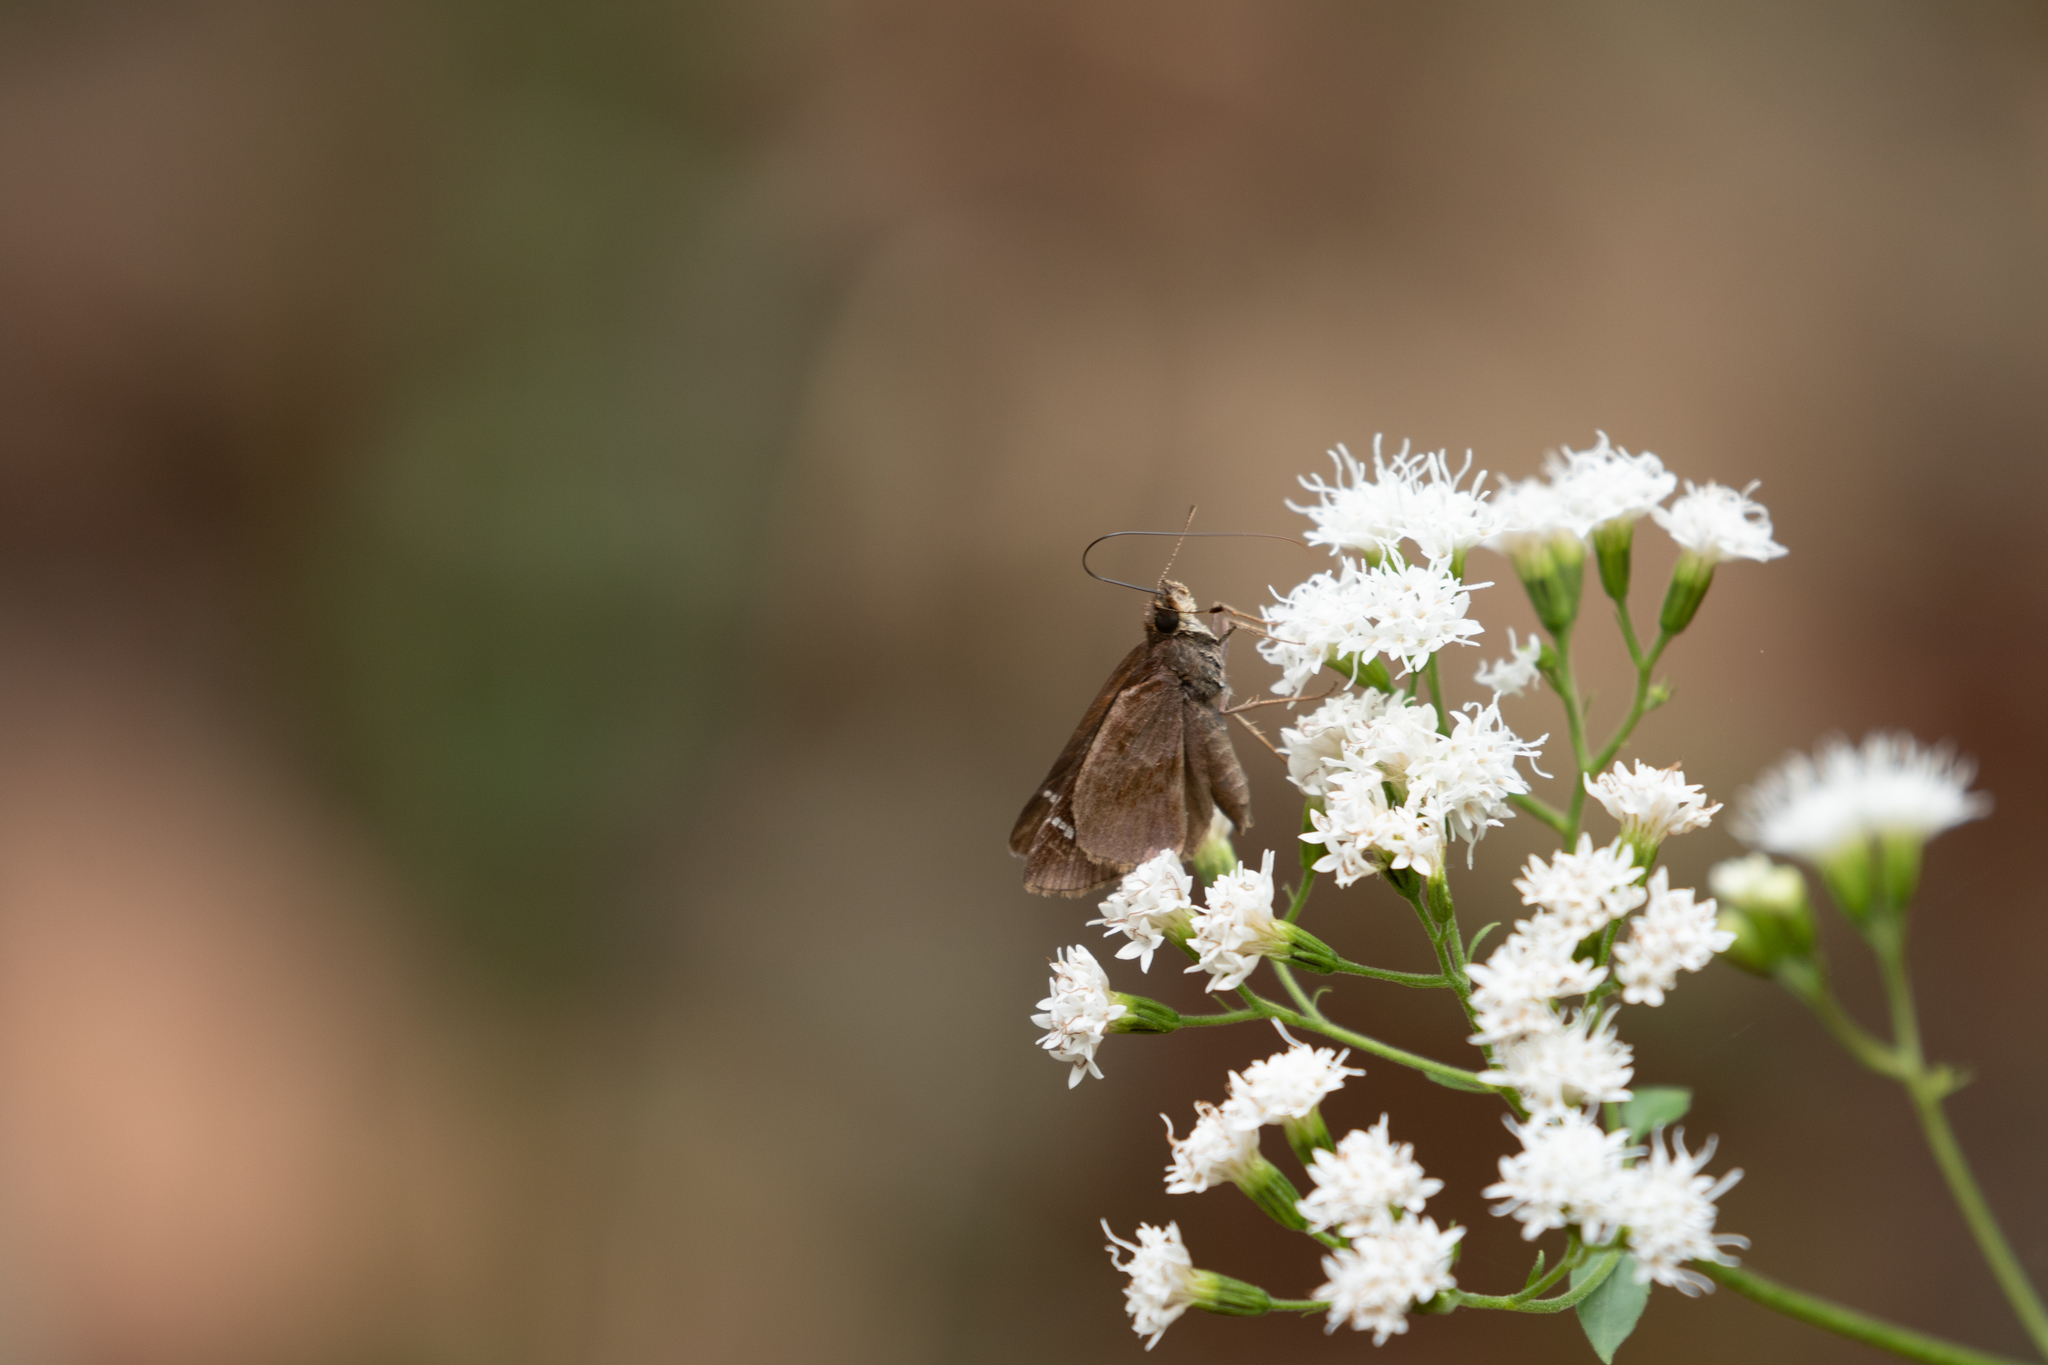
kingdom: Animalia
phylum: Arthropoda
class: Insecta
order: Lepidoptera
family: Hesperiidae
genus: Lerema
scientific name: Lerema accius
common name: Clouded skipper
